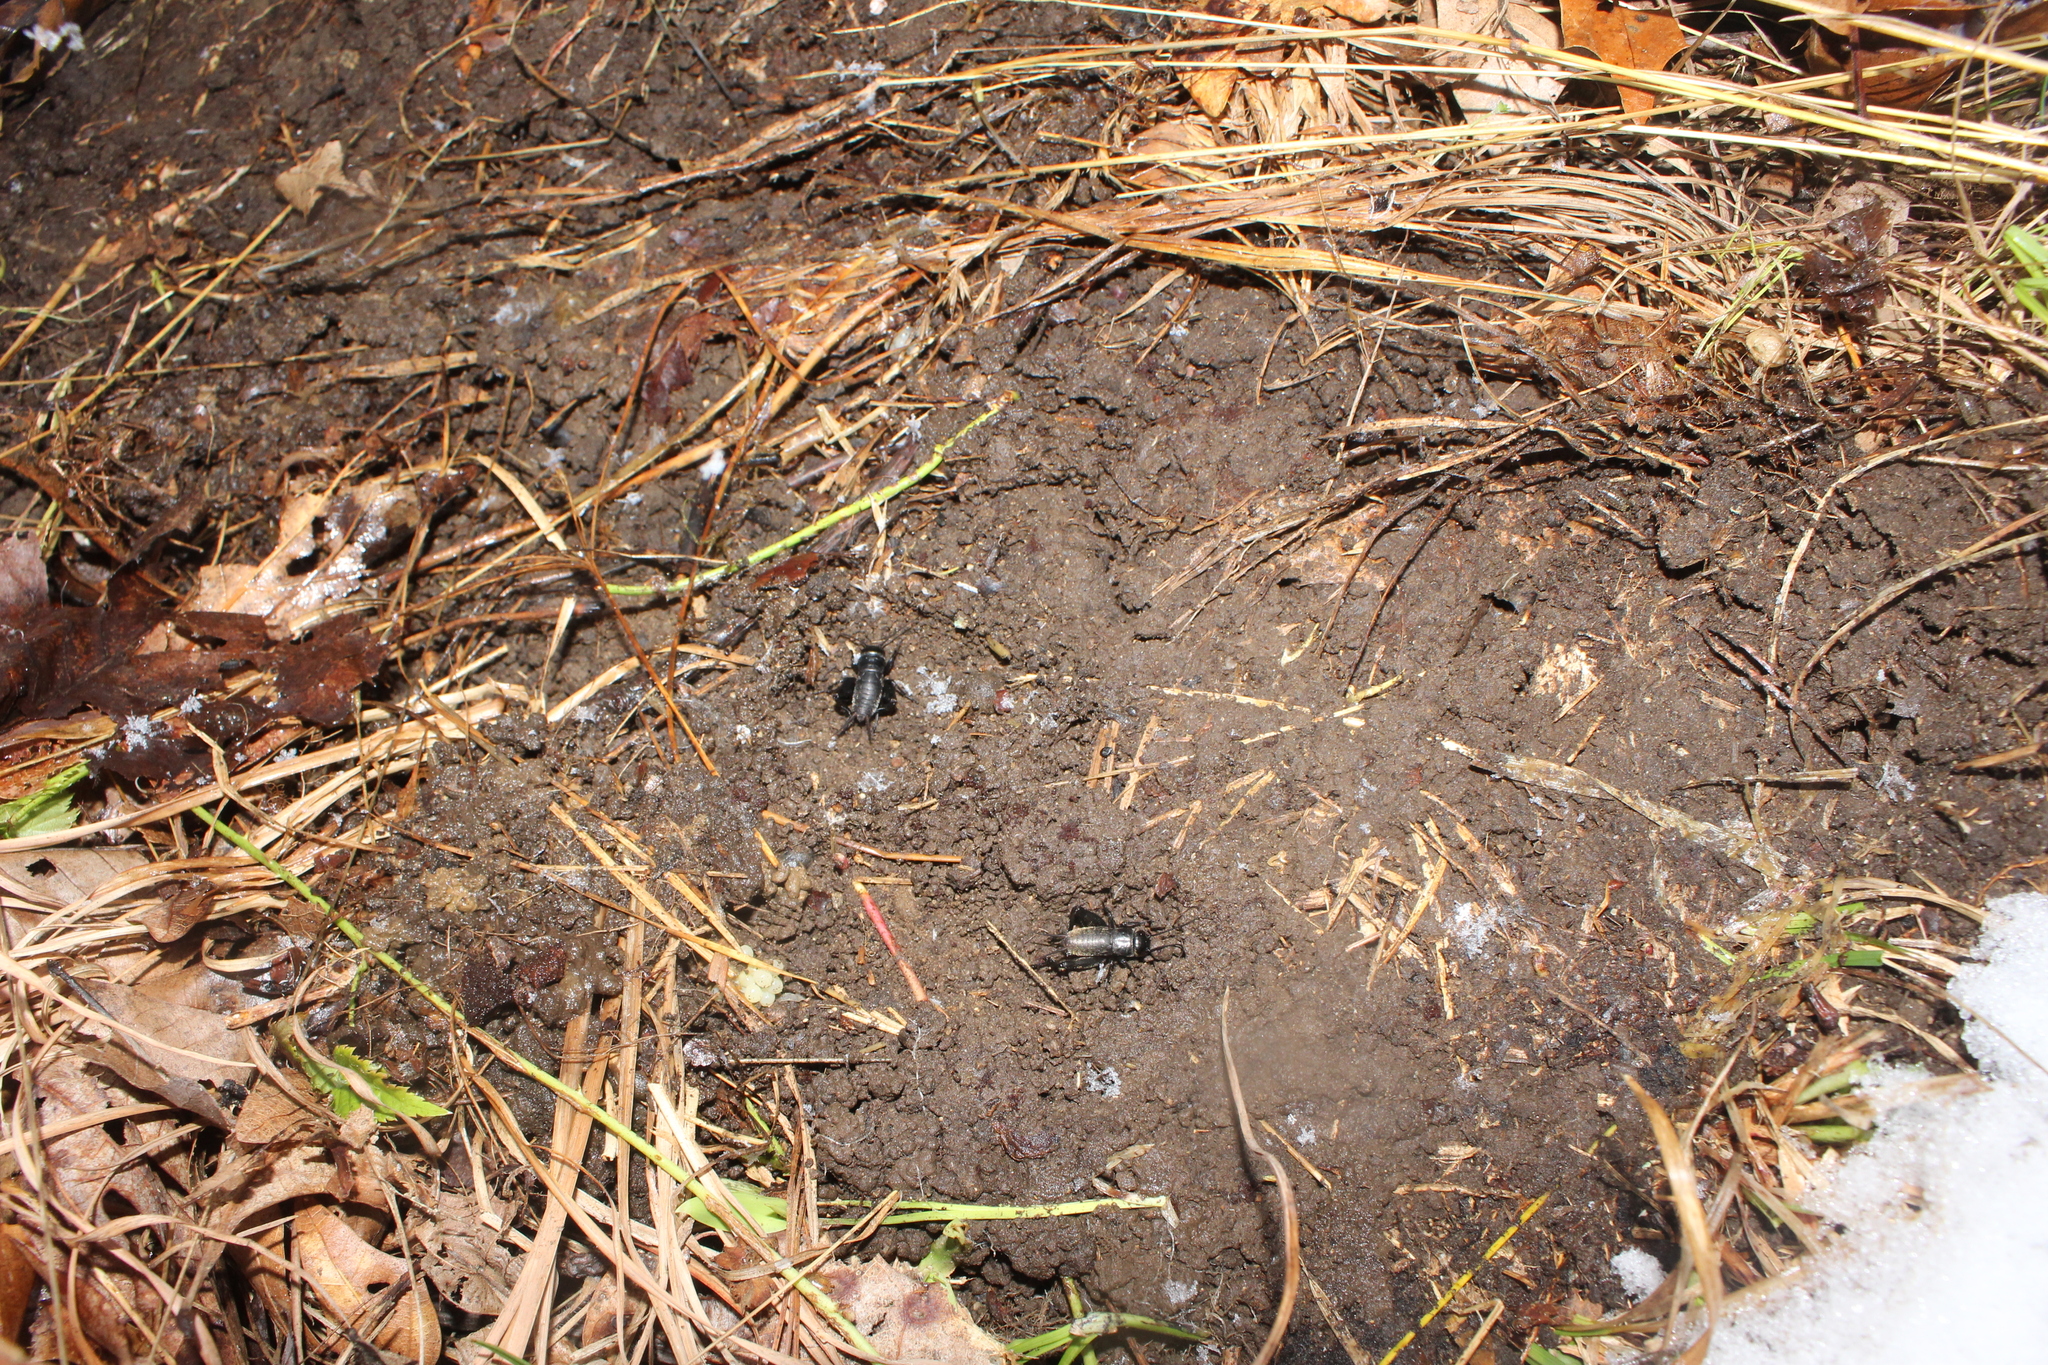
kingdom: Animalia
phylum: Arthropoda
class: Insecta
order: Orthoptera
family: Gryllidae
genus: Gryllus
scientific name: Gryllus veletis
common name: Spring field cricket
